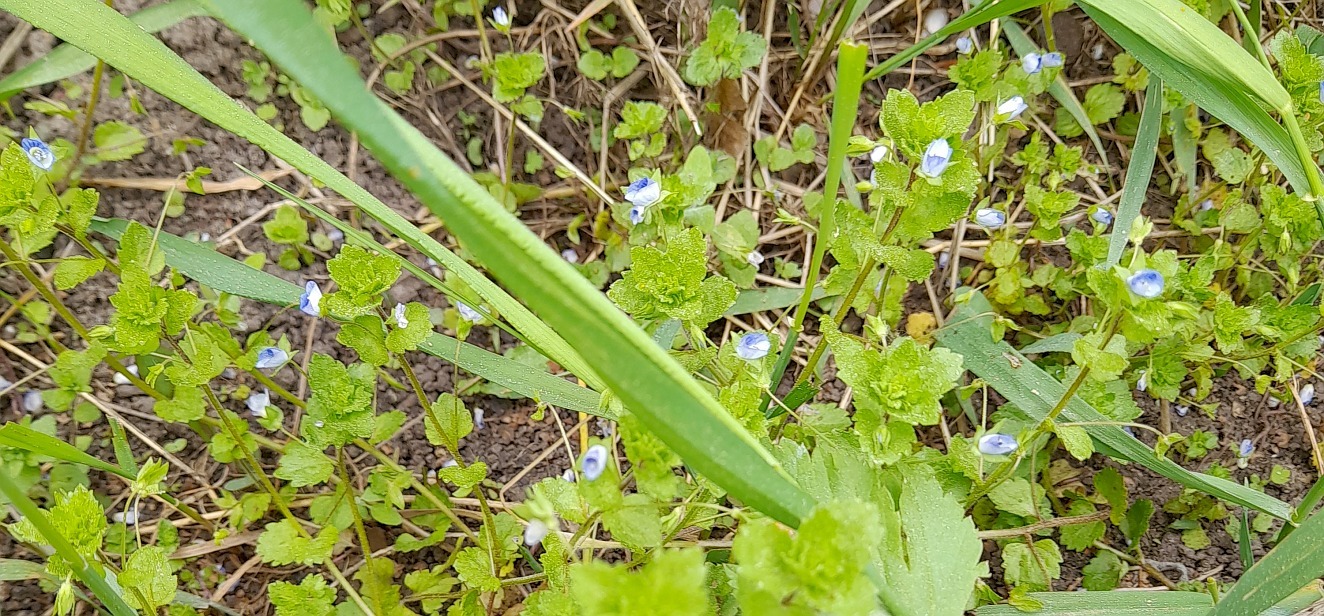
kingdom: Plantae
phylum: Tracheophyta
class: Magnoliopsida
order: Lamiales
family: Plantaginaceae
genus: Veronica
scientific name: Veronica persica
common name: Common field-speedwell
